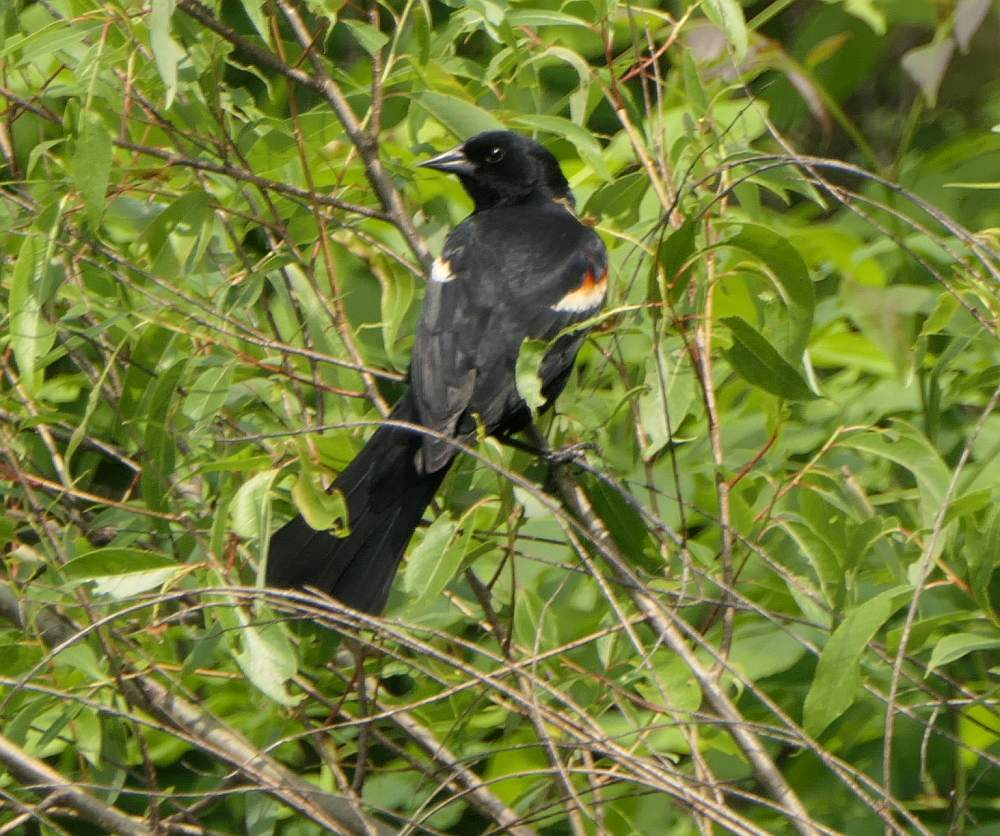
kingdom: Animalia
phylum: Chordata
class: Aves
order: Passeriformes
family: Icteridae
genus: Agelaius
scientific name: Agelaius phoeniceus
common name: Red-winged blackbird
